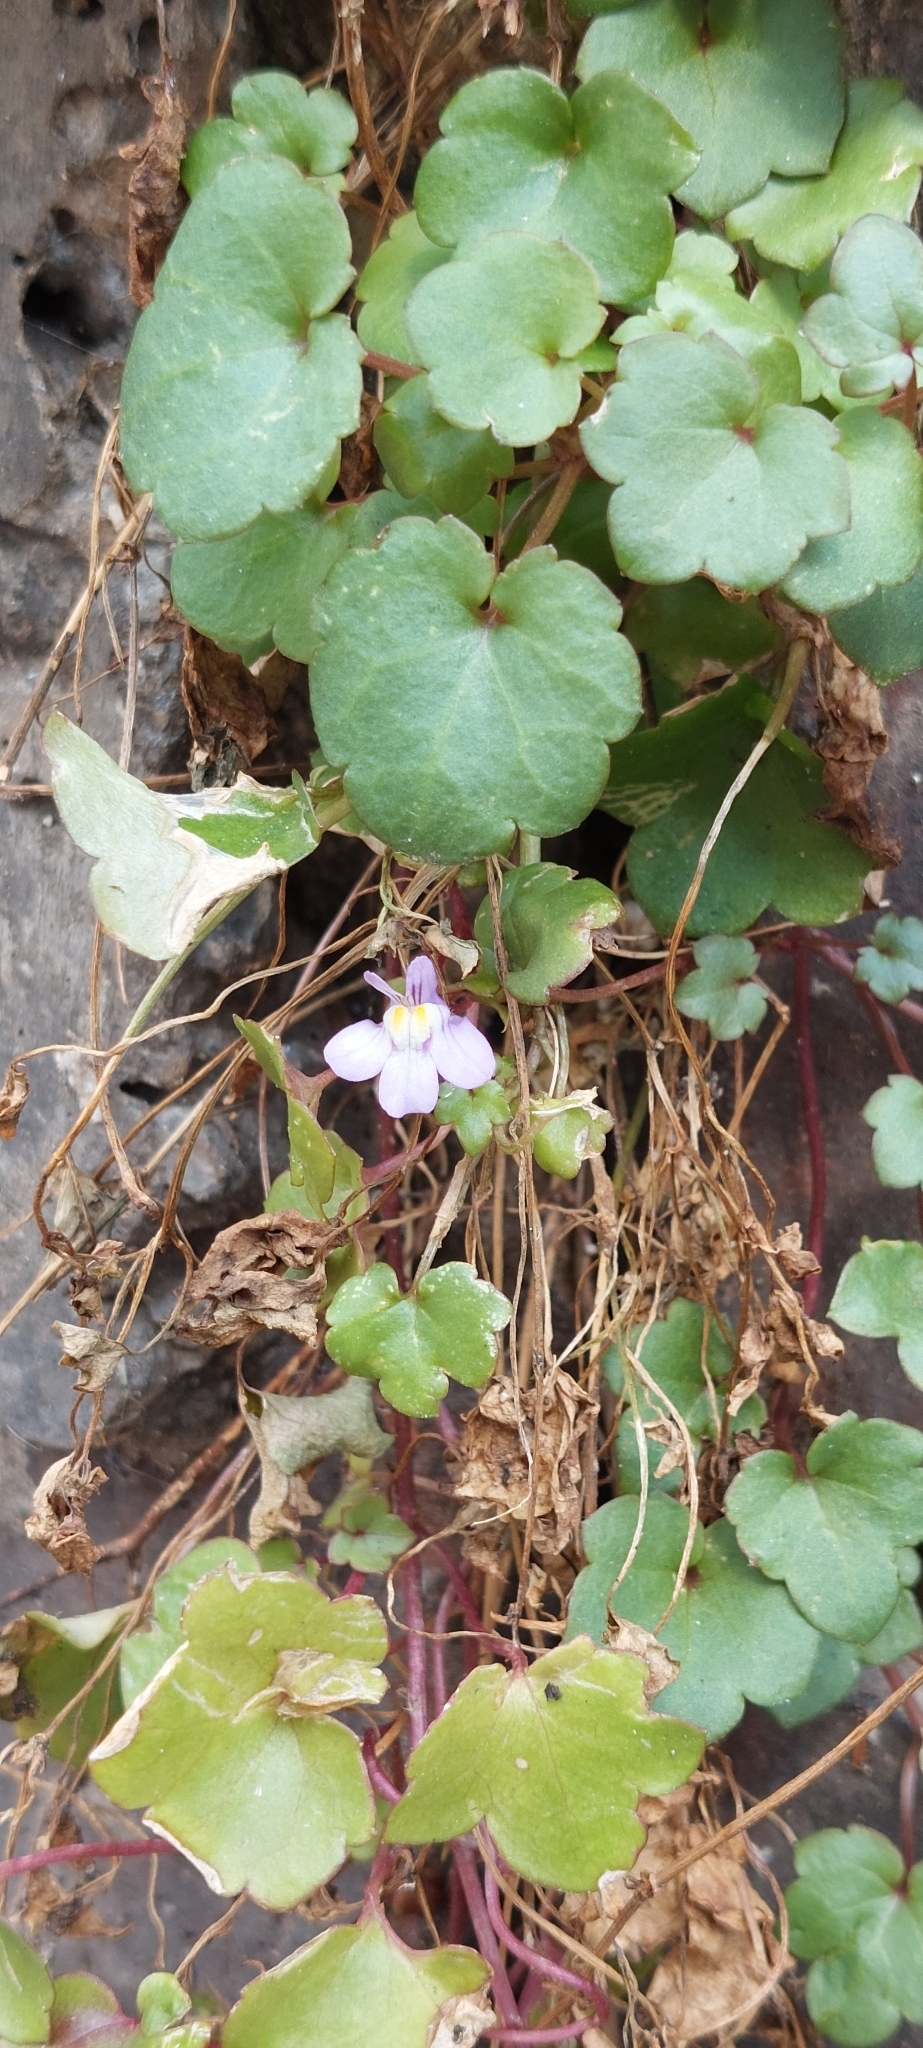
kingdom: Plantae
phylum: Tracheophyta
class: Magnoliopsida
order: Lamiales
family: Plantaginaceae
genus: Cymbalaria
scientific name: Cymbalaria muralis
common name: Ivy-leaved toadflax
